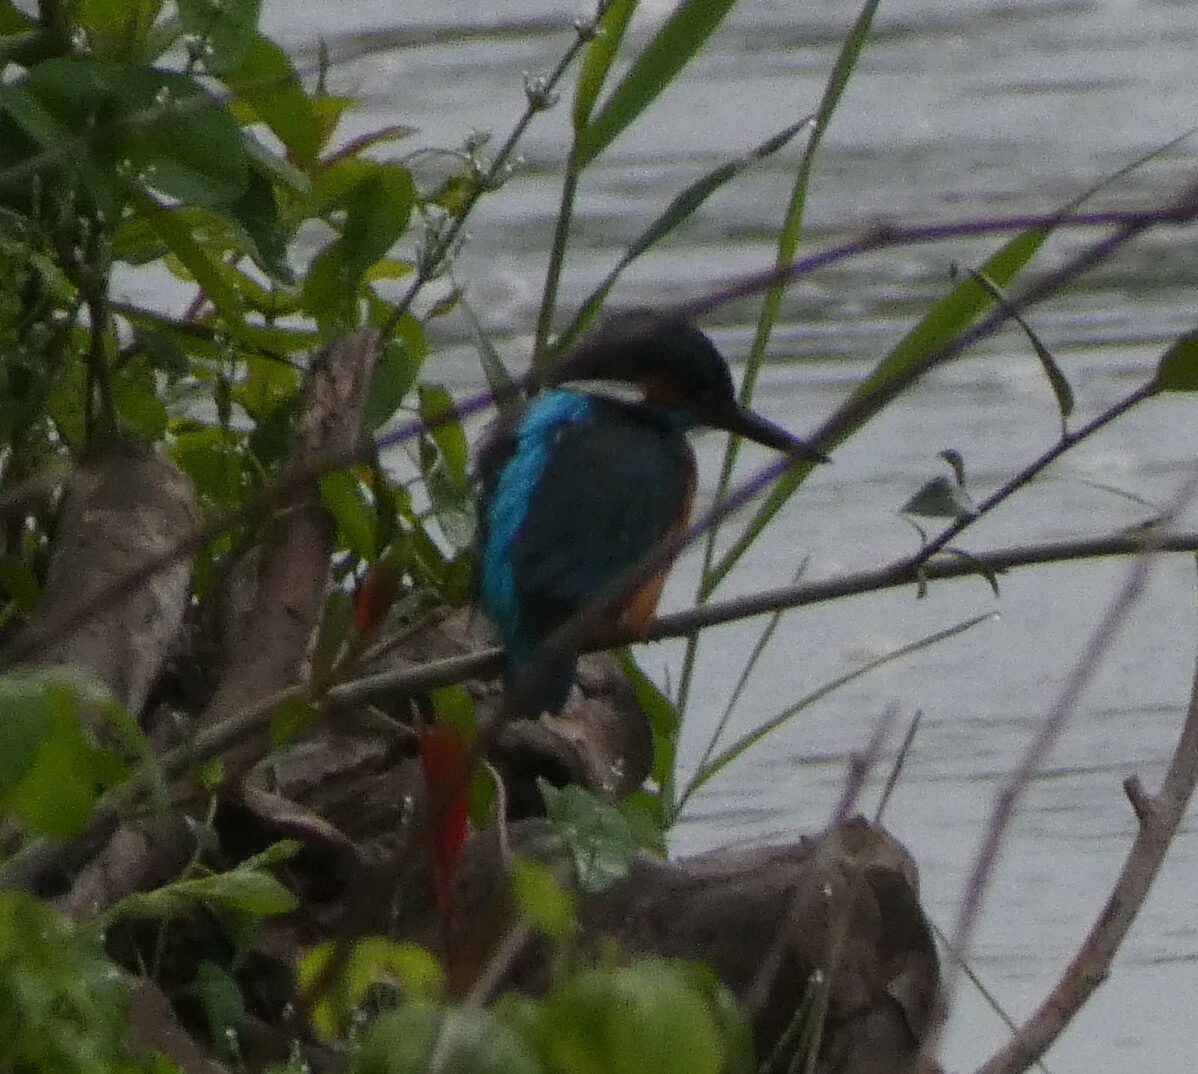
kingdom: Animalia
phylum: Chordata
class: Aves
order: Coraciiformes
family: Alcedinidae
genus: Alcedo
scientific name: Alcedo atthis
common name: Common kingfisher
